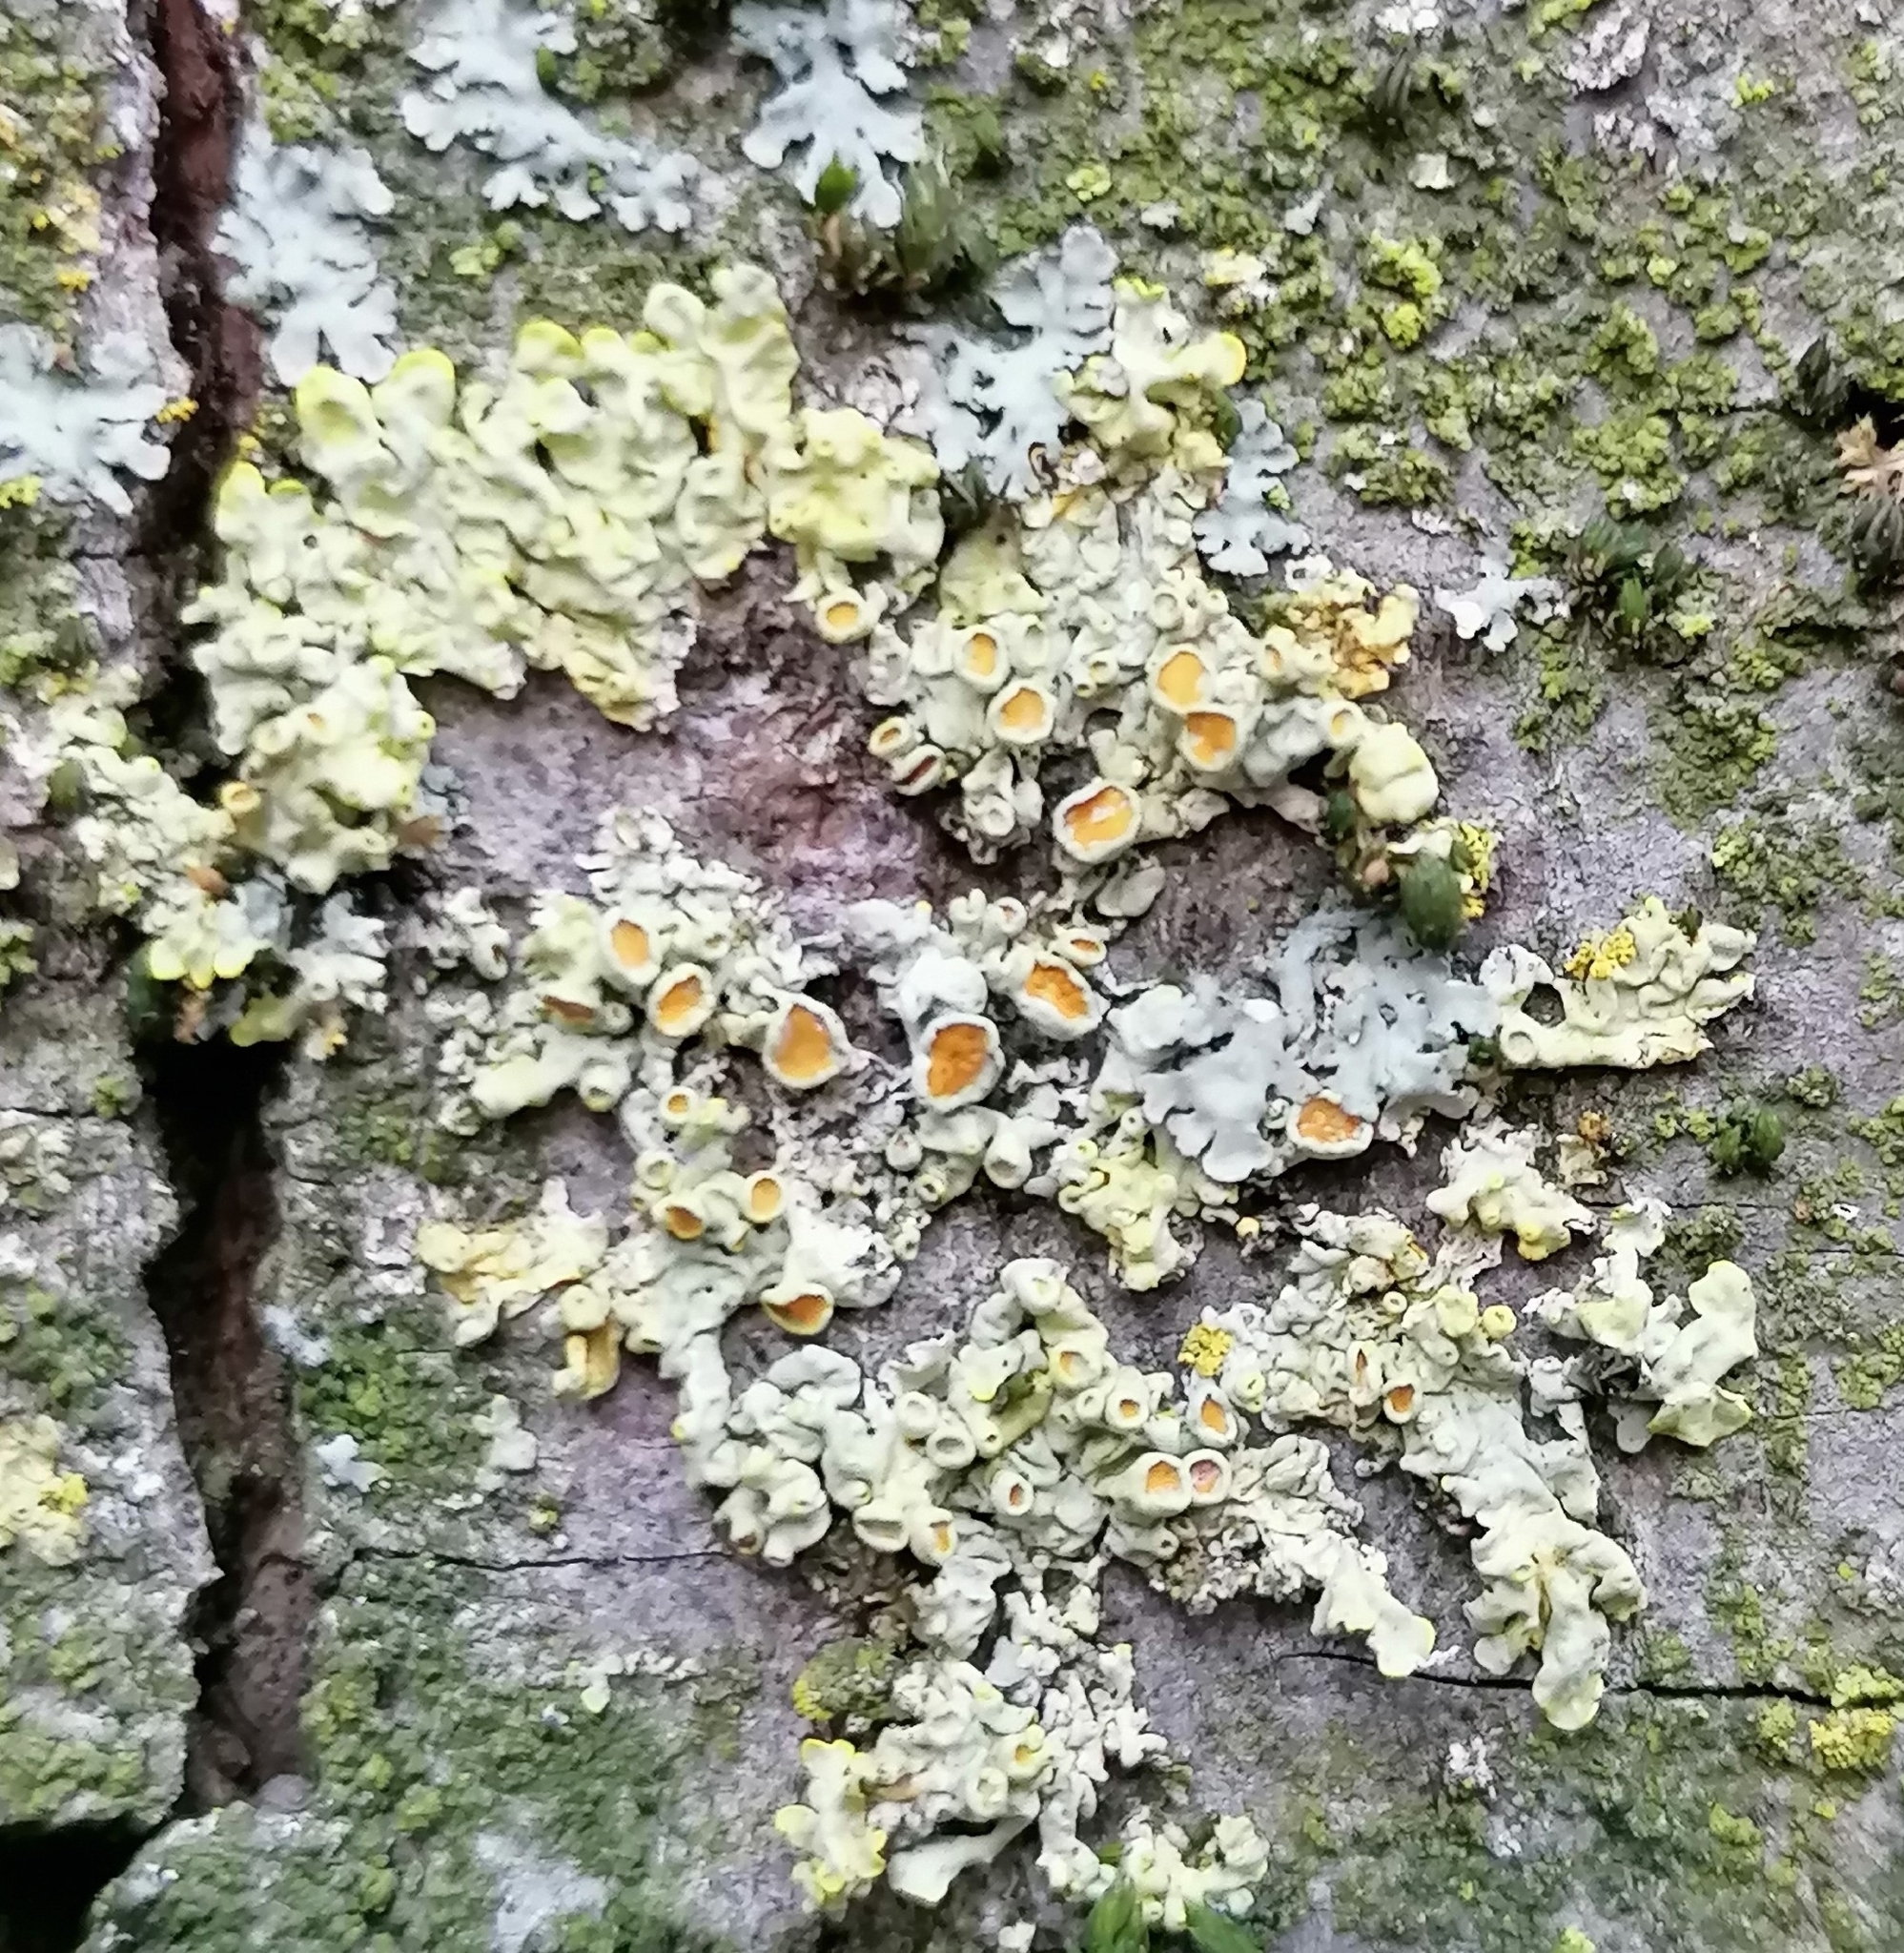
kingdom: Fungi
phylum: Ascomycota
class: Lecanoromycetes
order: Teloschistales
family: Teloschistaceae
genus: Xanthoria
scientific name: Xanthoria parietina
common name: Common orange lichen
